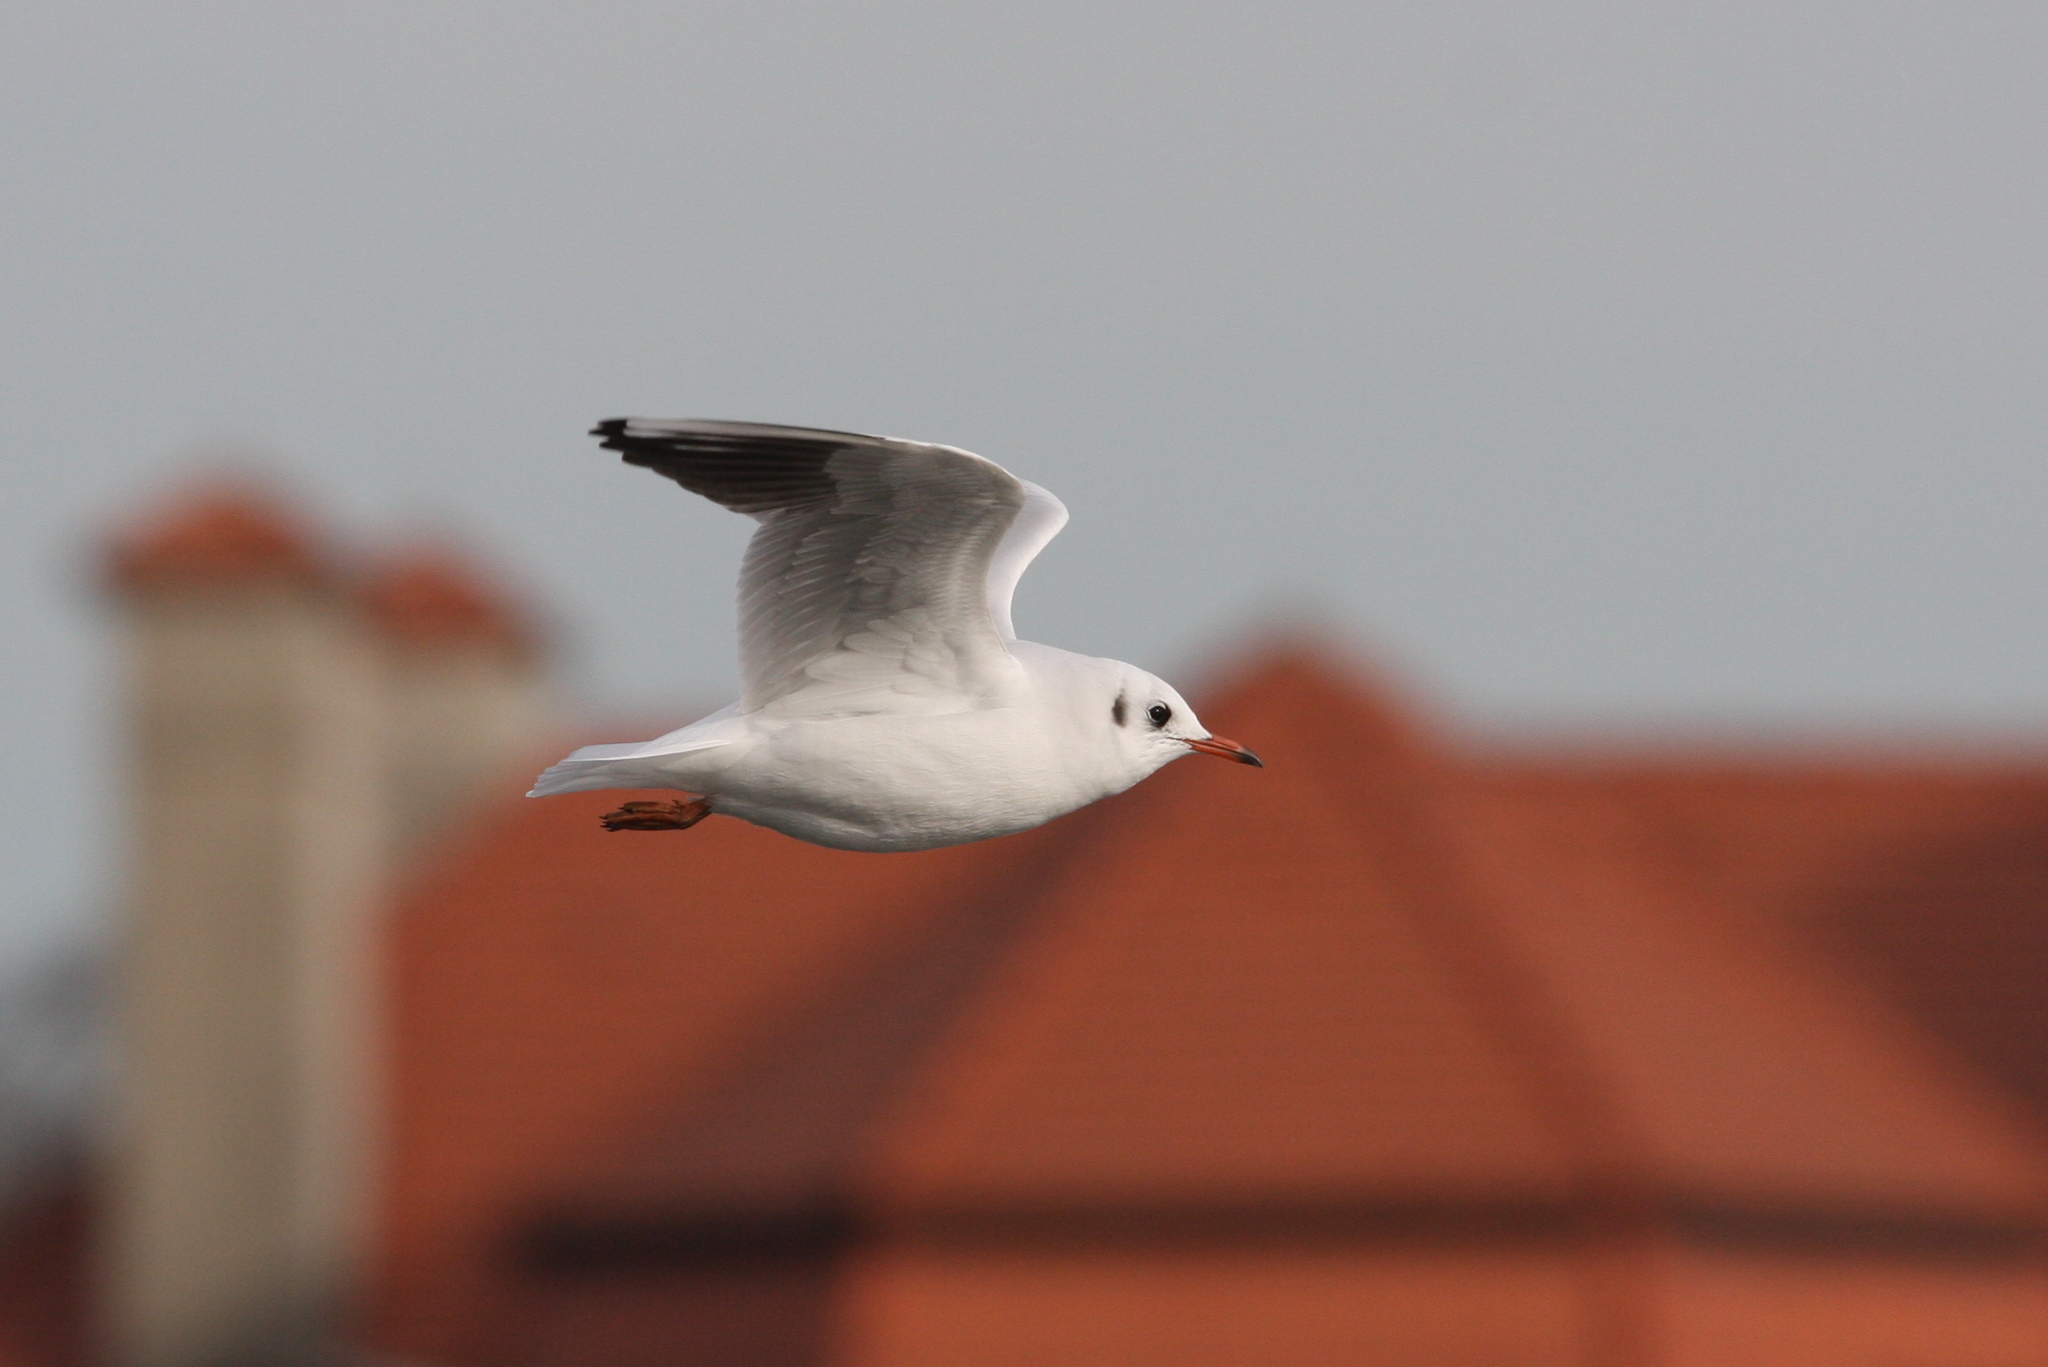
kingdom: Animalia
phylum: Chordata
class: Aves
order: Charadriiformes
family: Laridae
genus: Chroicocephalus
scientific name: Chroicocephalus ridibundus
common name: Black-headed gull
